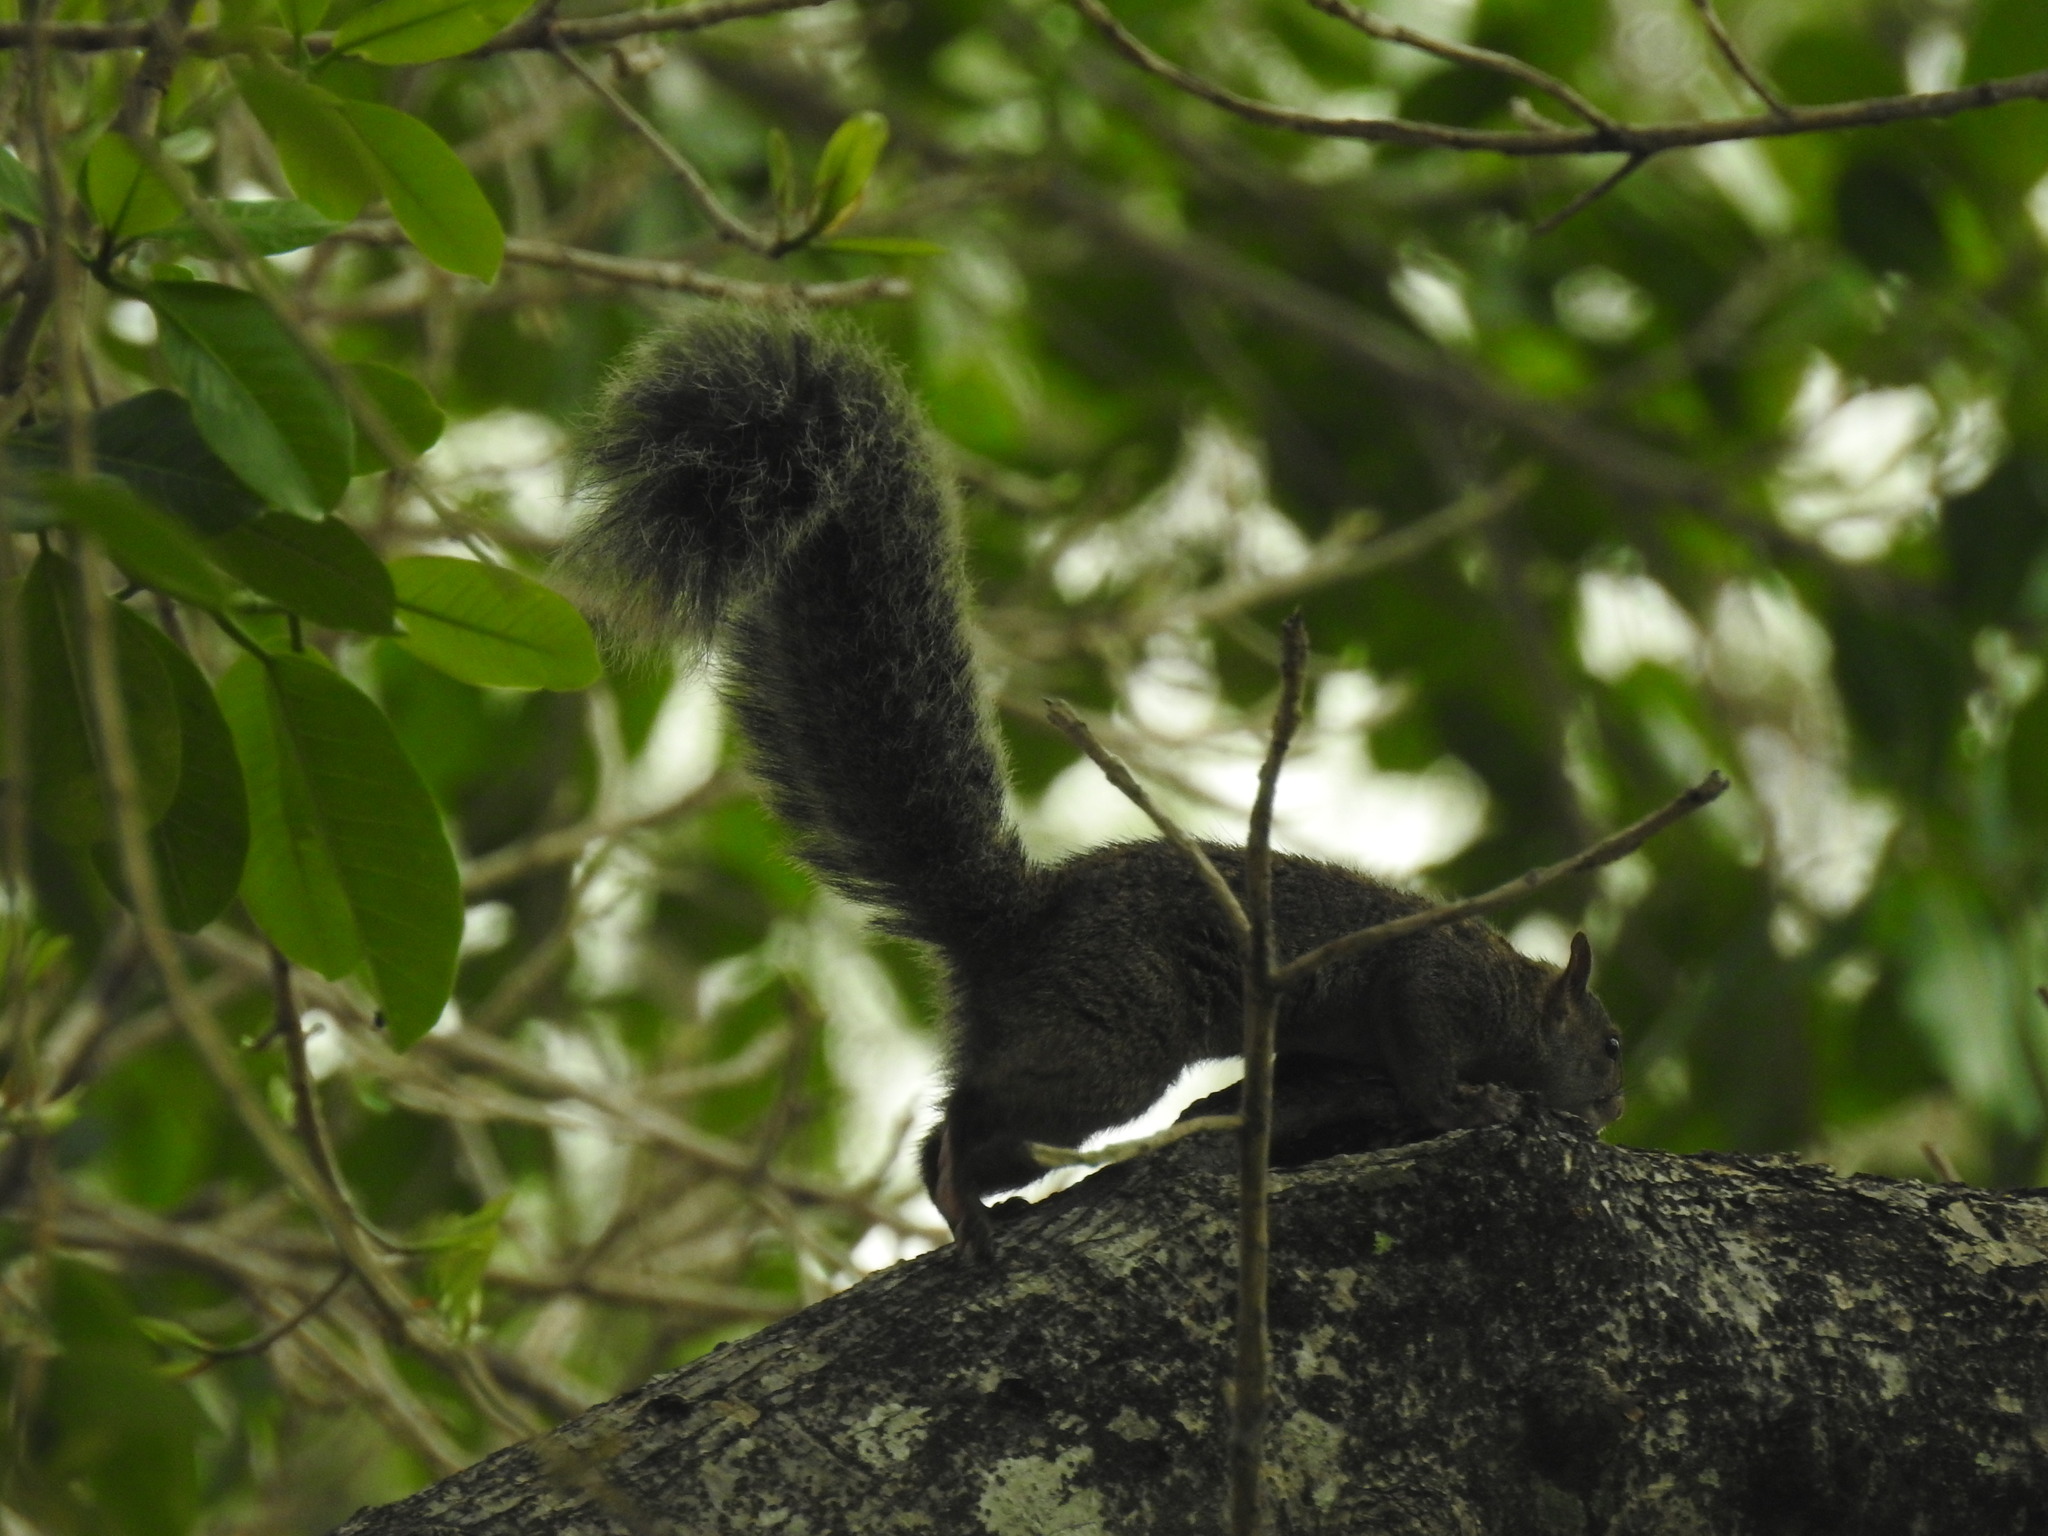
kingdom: Animalia
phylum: Chordata
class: Mammalia
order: Rodentia
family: Sciuridae
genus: Sciurus
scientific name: Sciurus yucatanensis
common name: Yucatan squirrel
